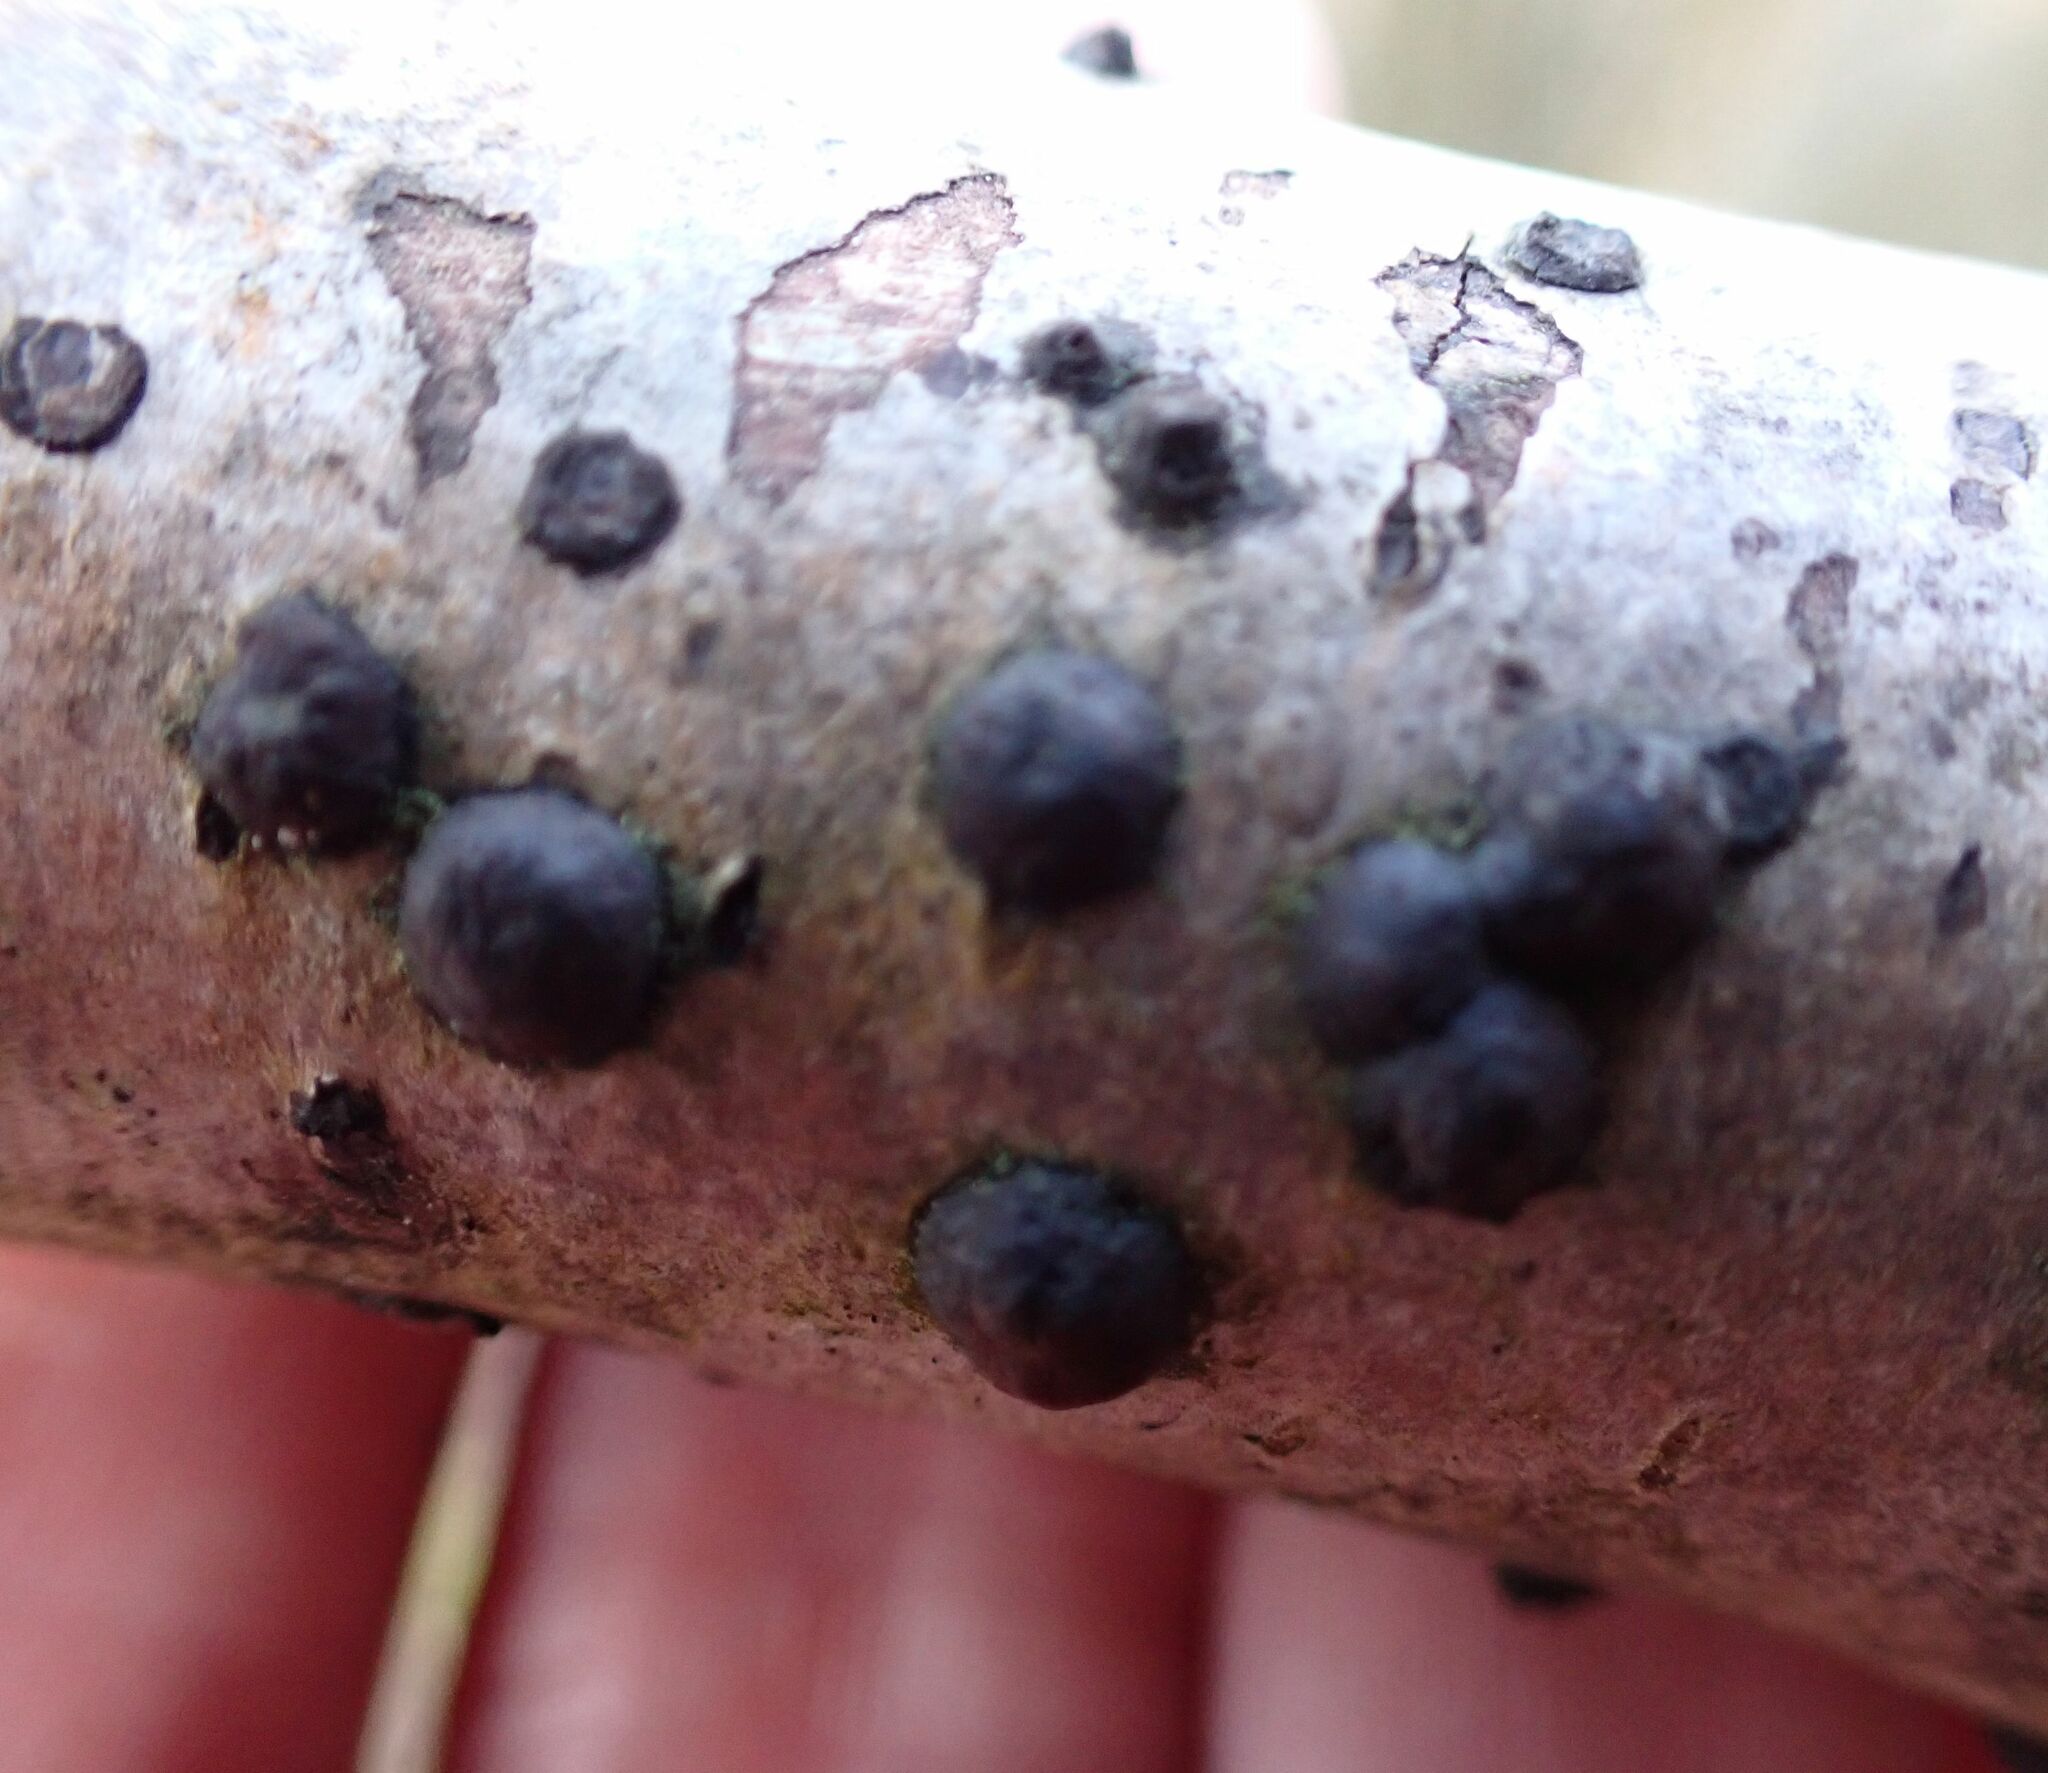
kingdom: Fungi
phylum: Ascomycota
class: Sordariomycetes
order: Xylariales
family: Hypoxylaceae
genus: Hypoxylon
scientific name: Hypoxylon fuscum
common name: Hazel woodwart
